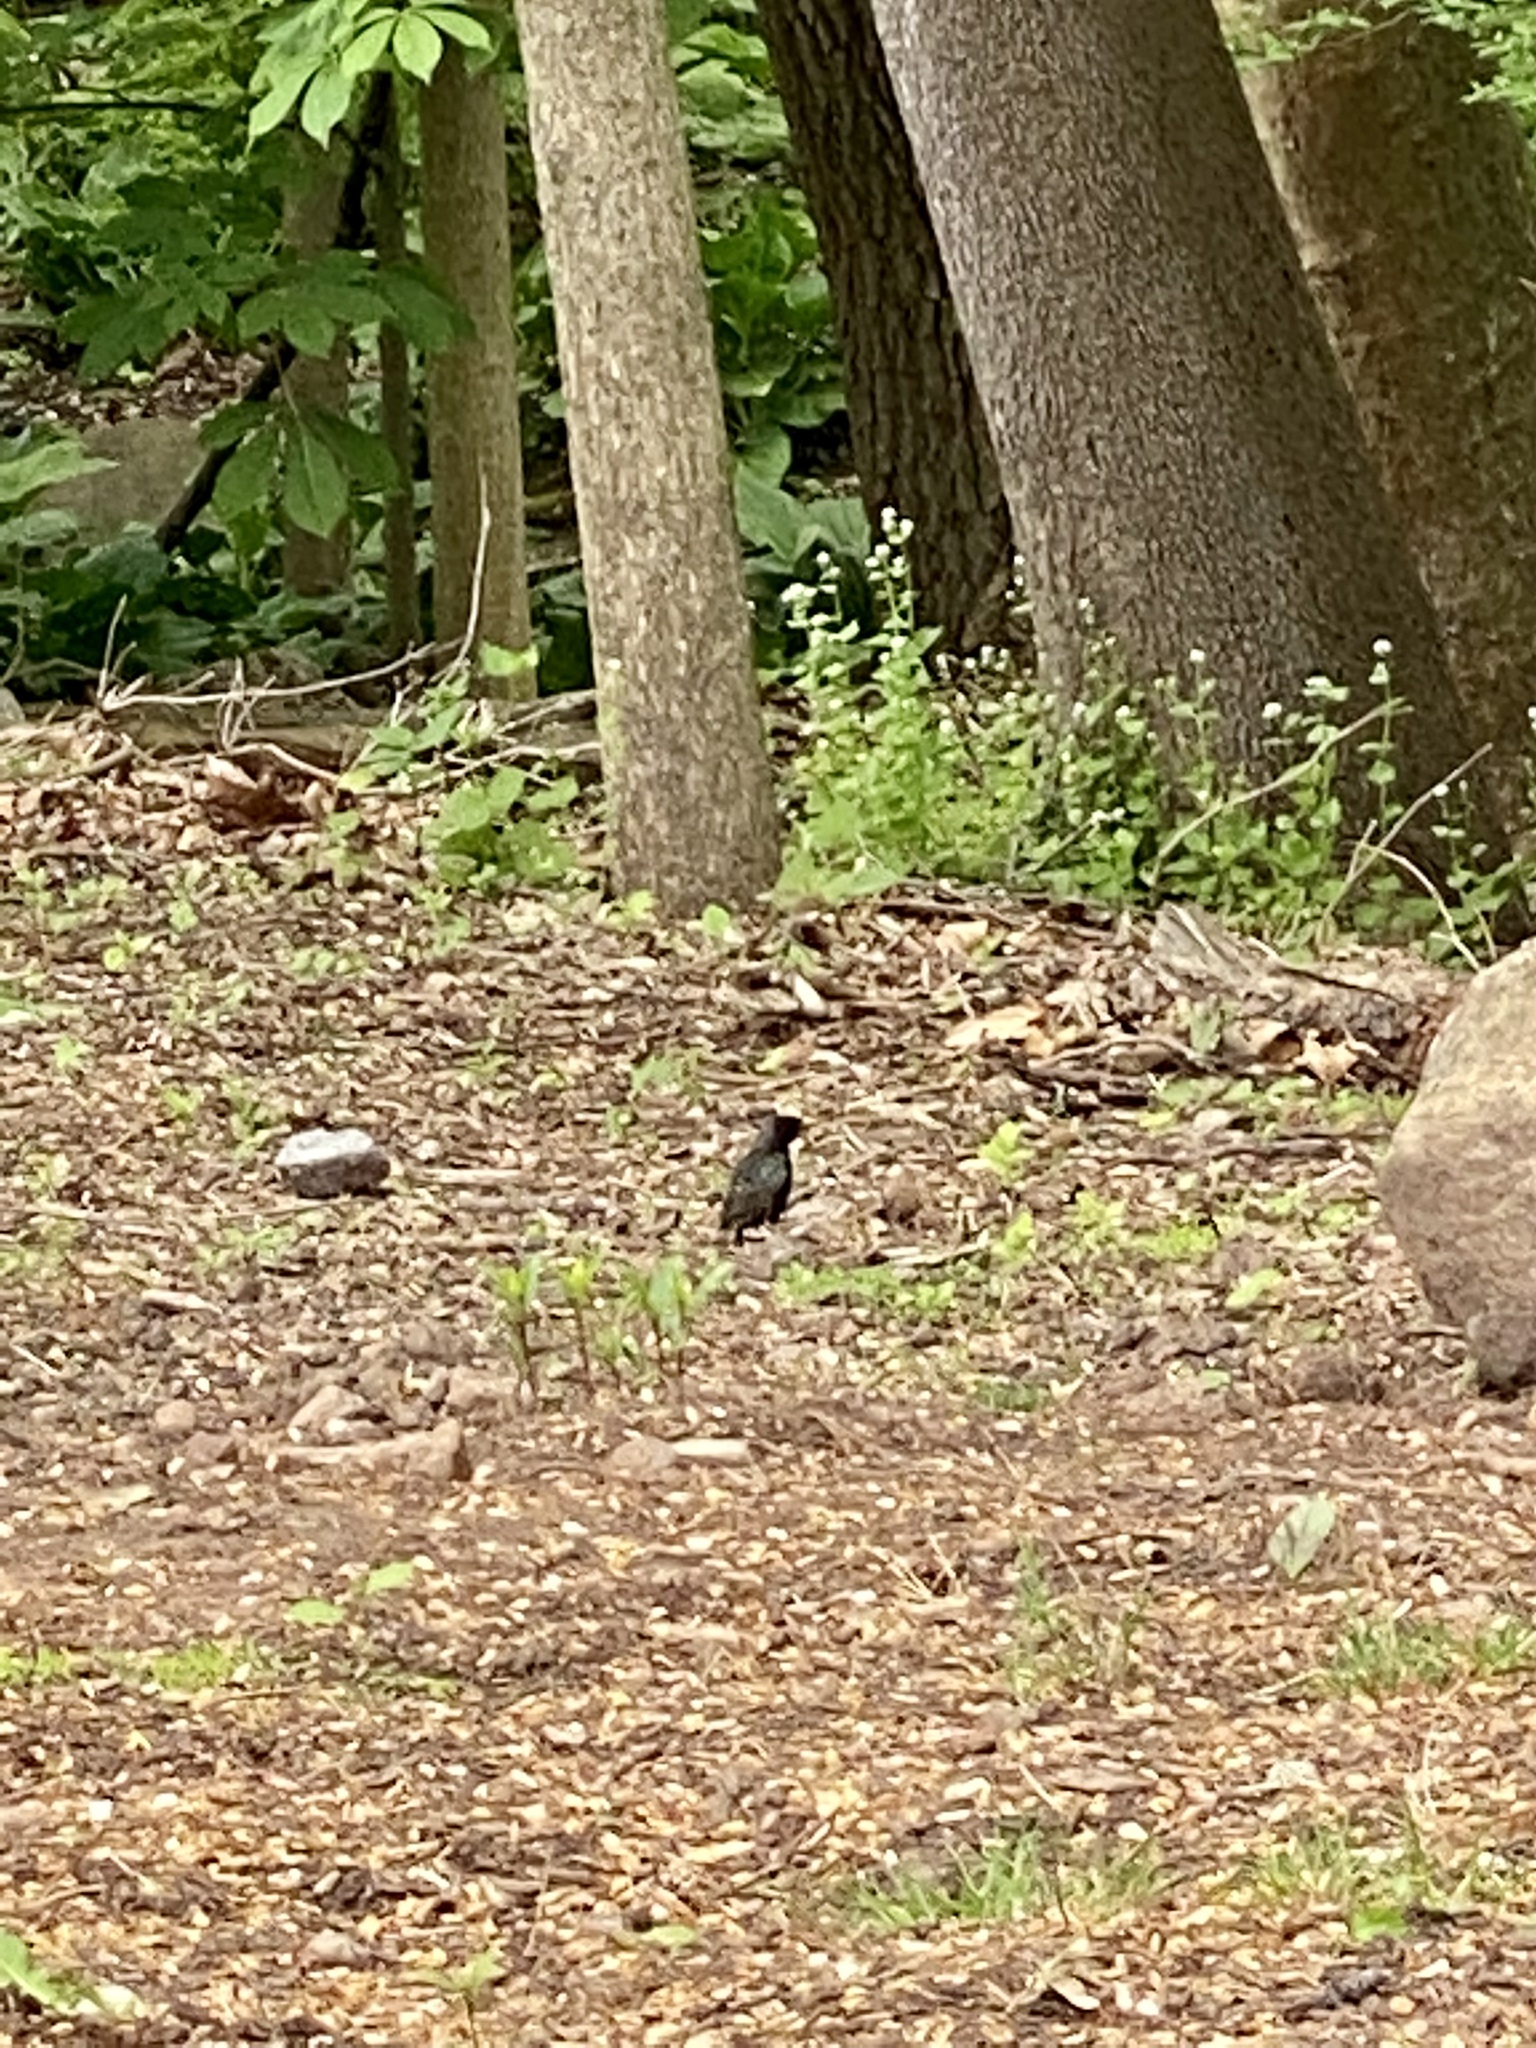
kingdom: Animalia
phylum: Chordata
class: Aves
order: Passeriformes
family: Sturnidae
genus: Sturnus
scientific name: Sturnus vulgaris
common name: Common starling
